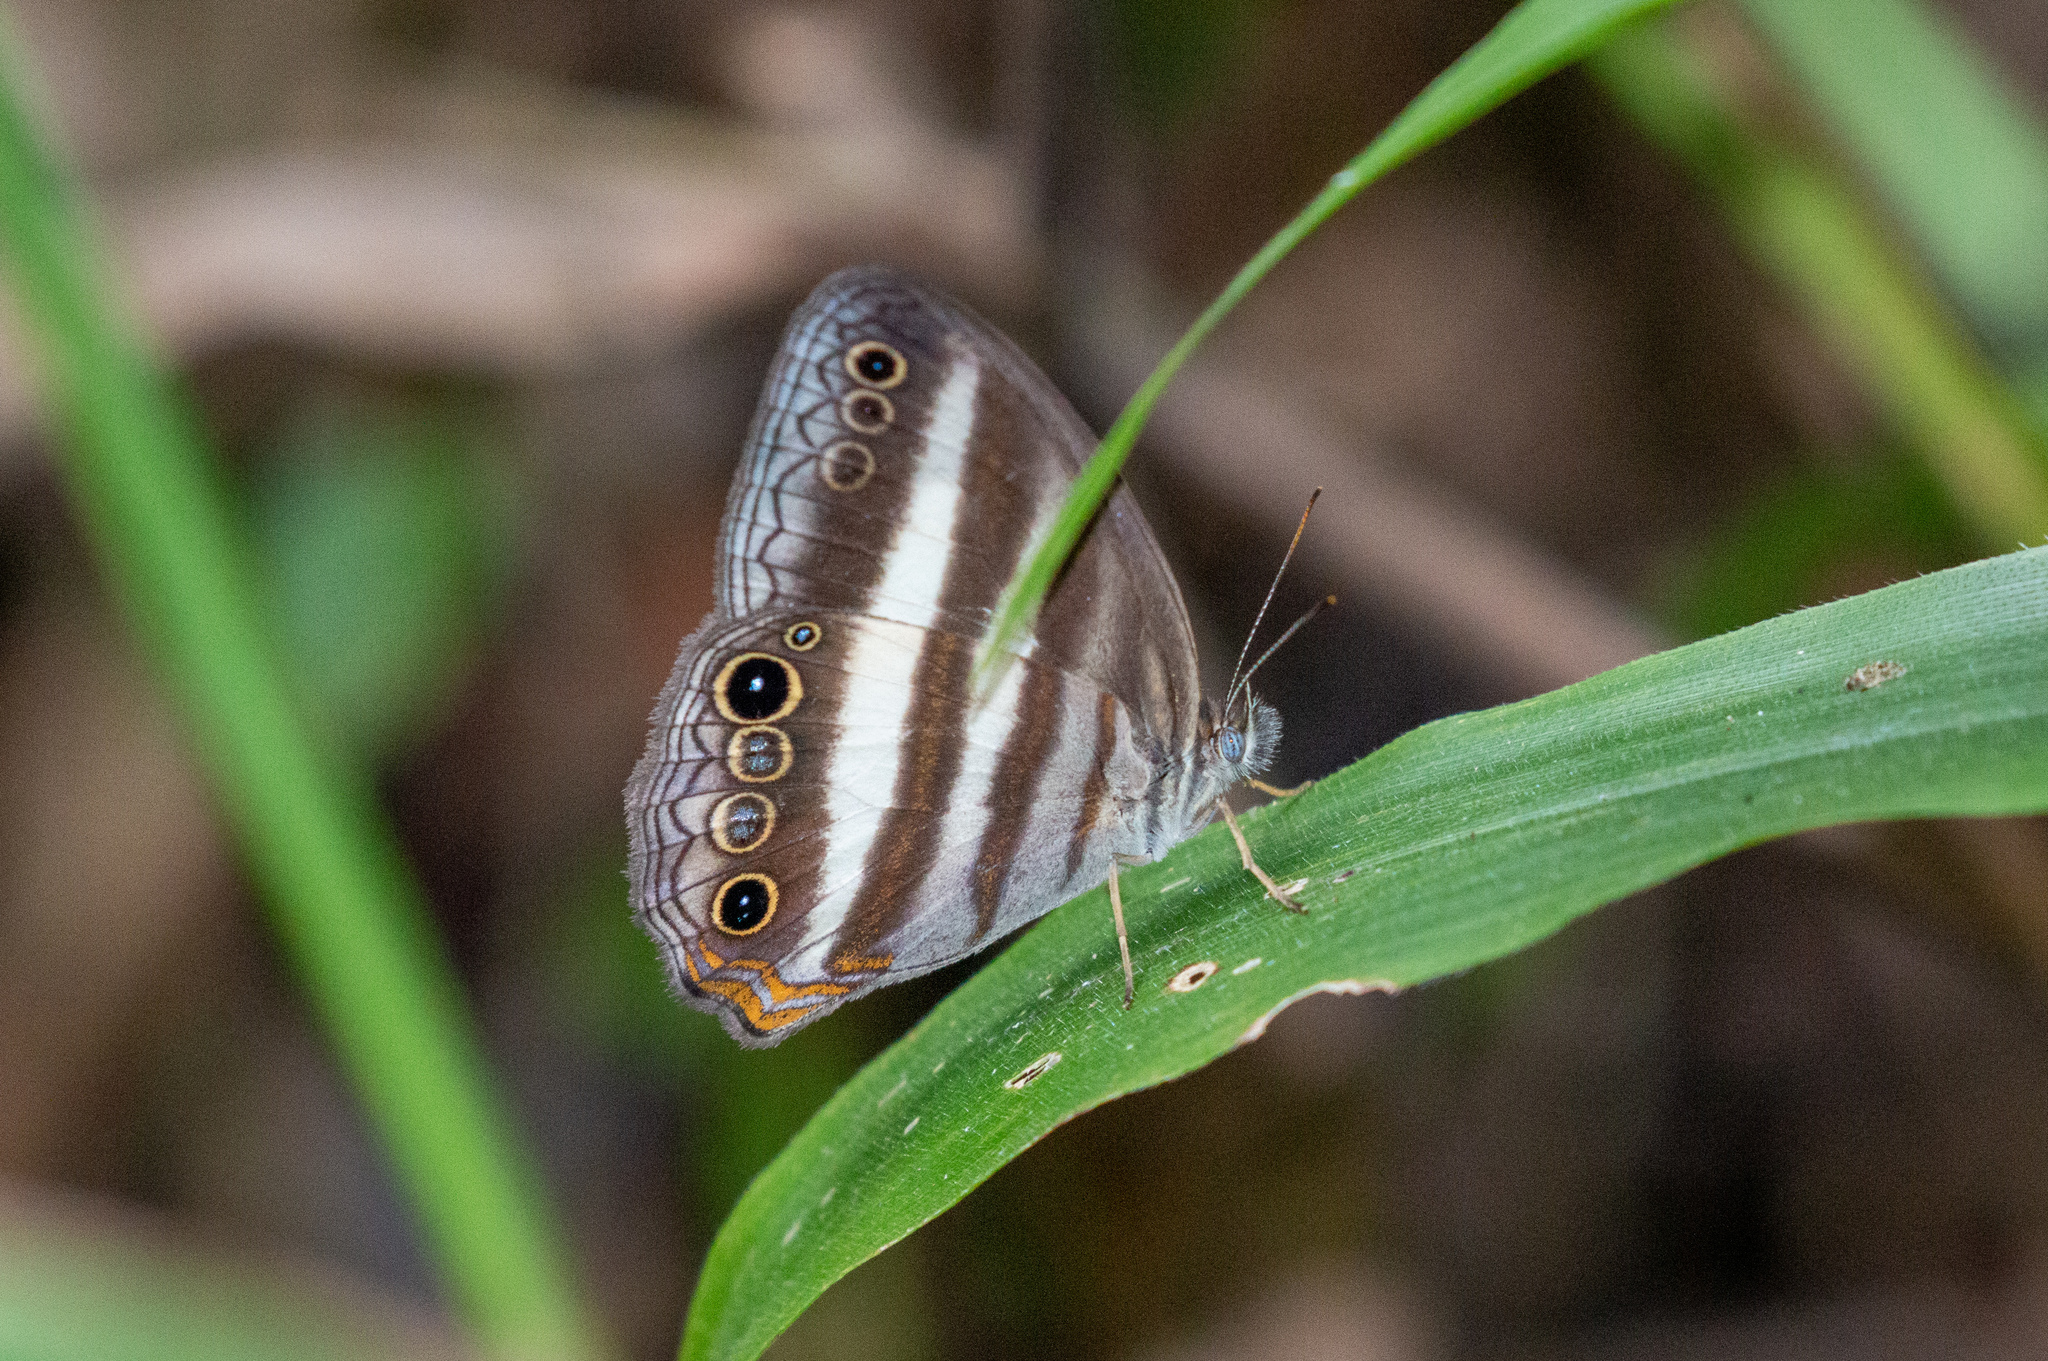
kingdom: Animalia
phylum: Arthropoda
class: Insecta
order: Lepidoptera
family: Nymphalidae
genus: Pareuptychia
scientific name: Pareuptychia hesione
